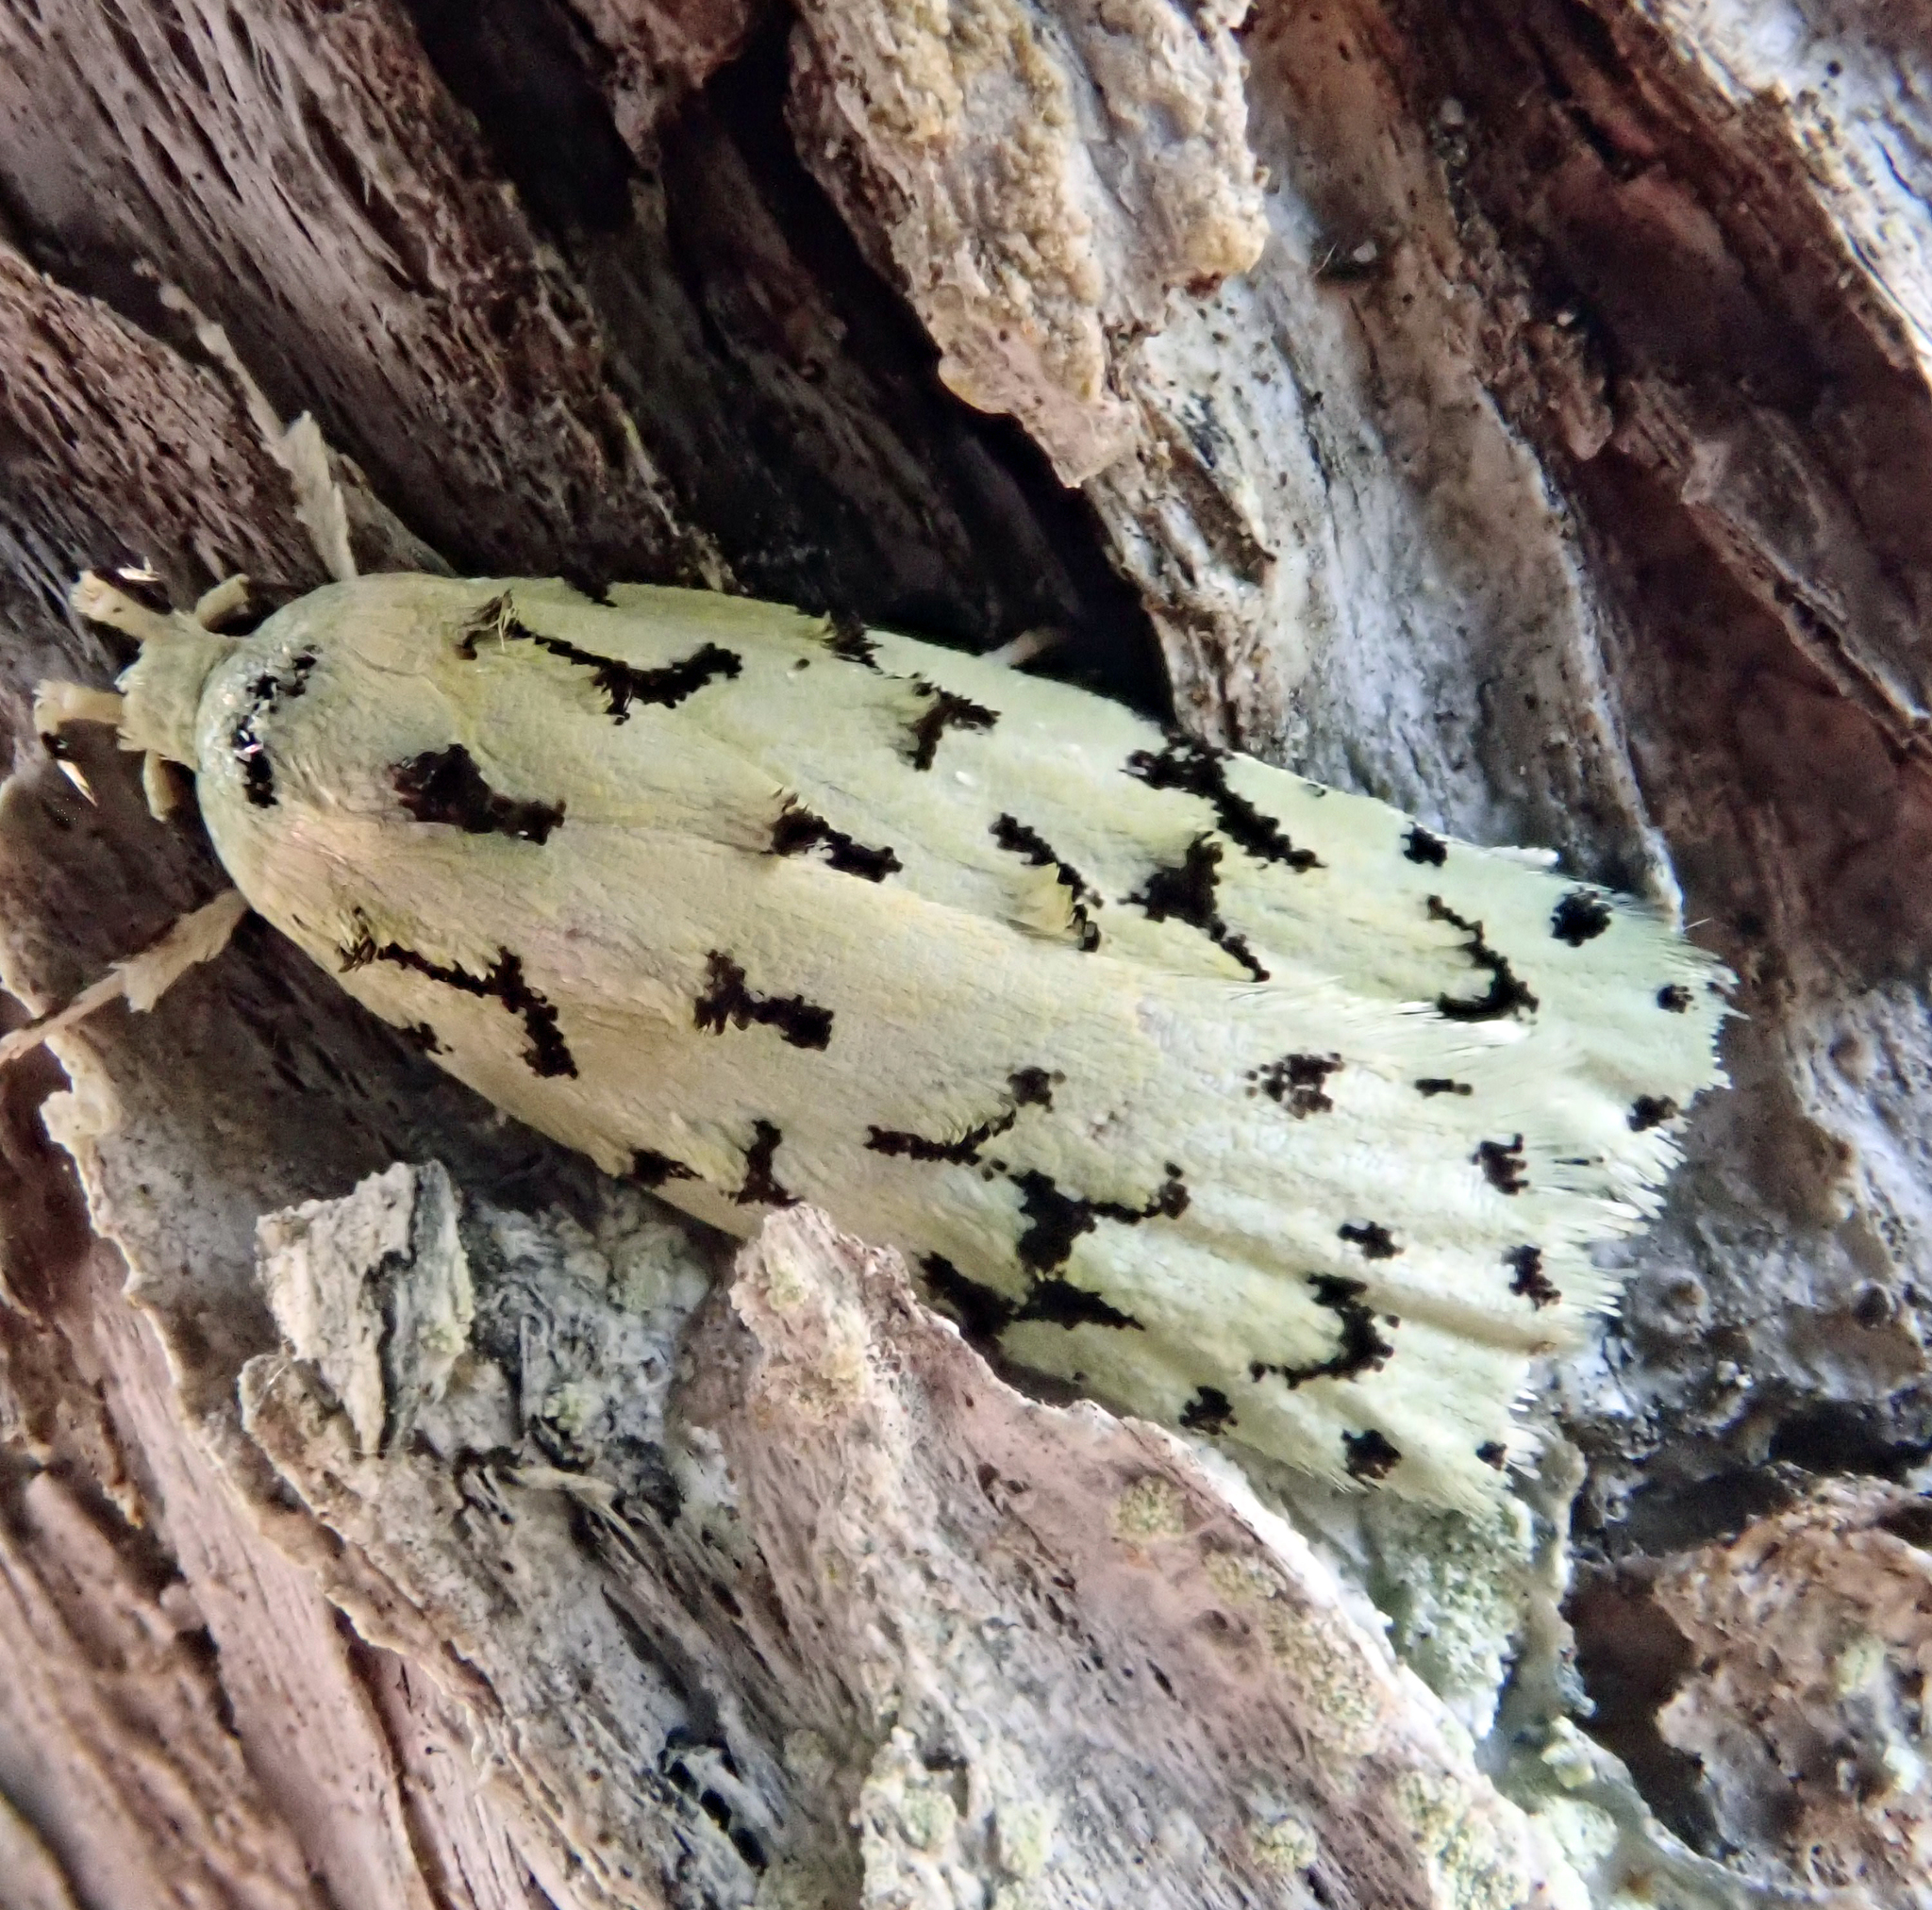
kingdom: Animalia
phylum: Arthropoda
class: Insecta
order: Lepidoptera
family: Oecophoridae
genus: Izatha
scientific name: Izatha huttoni
